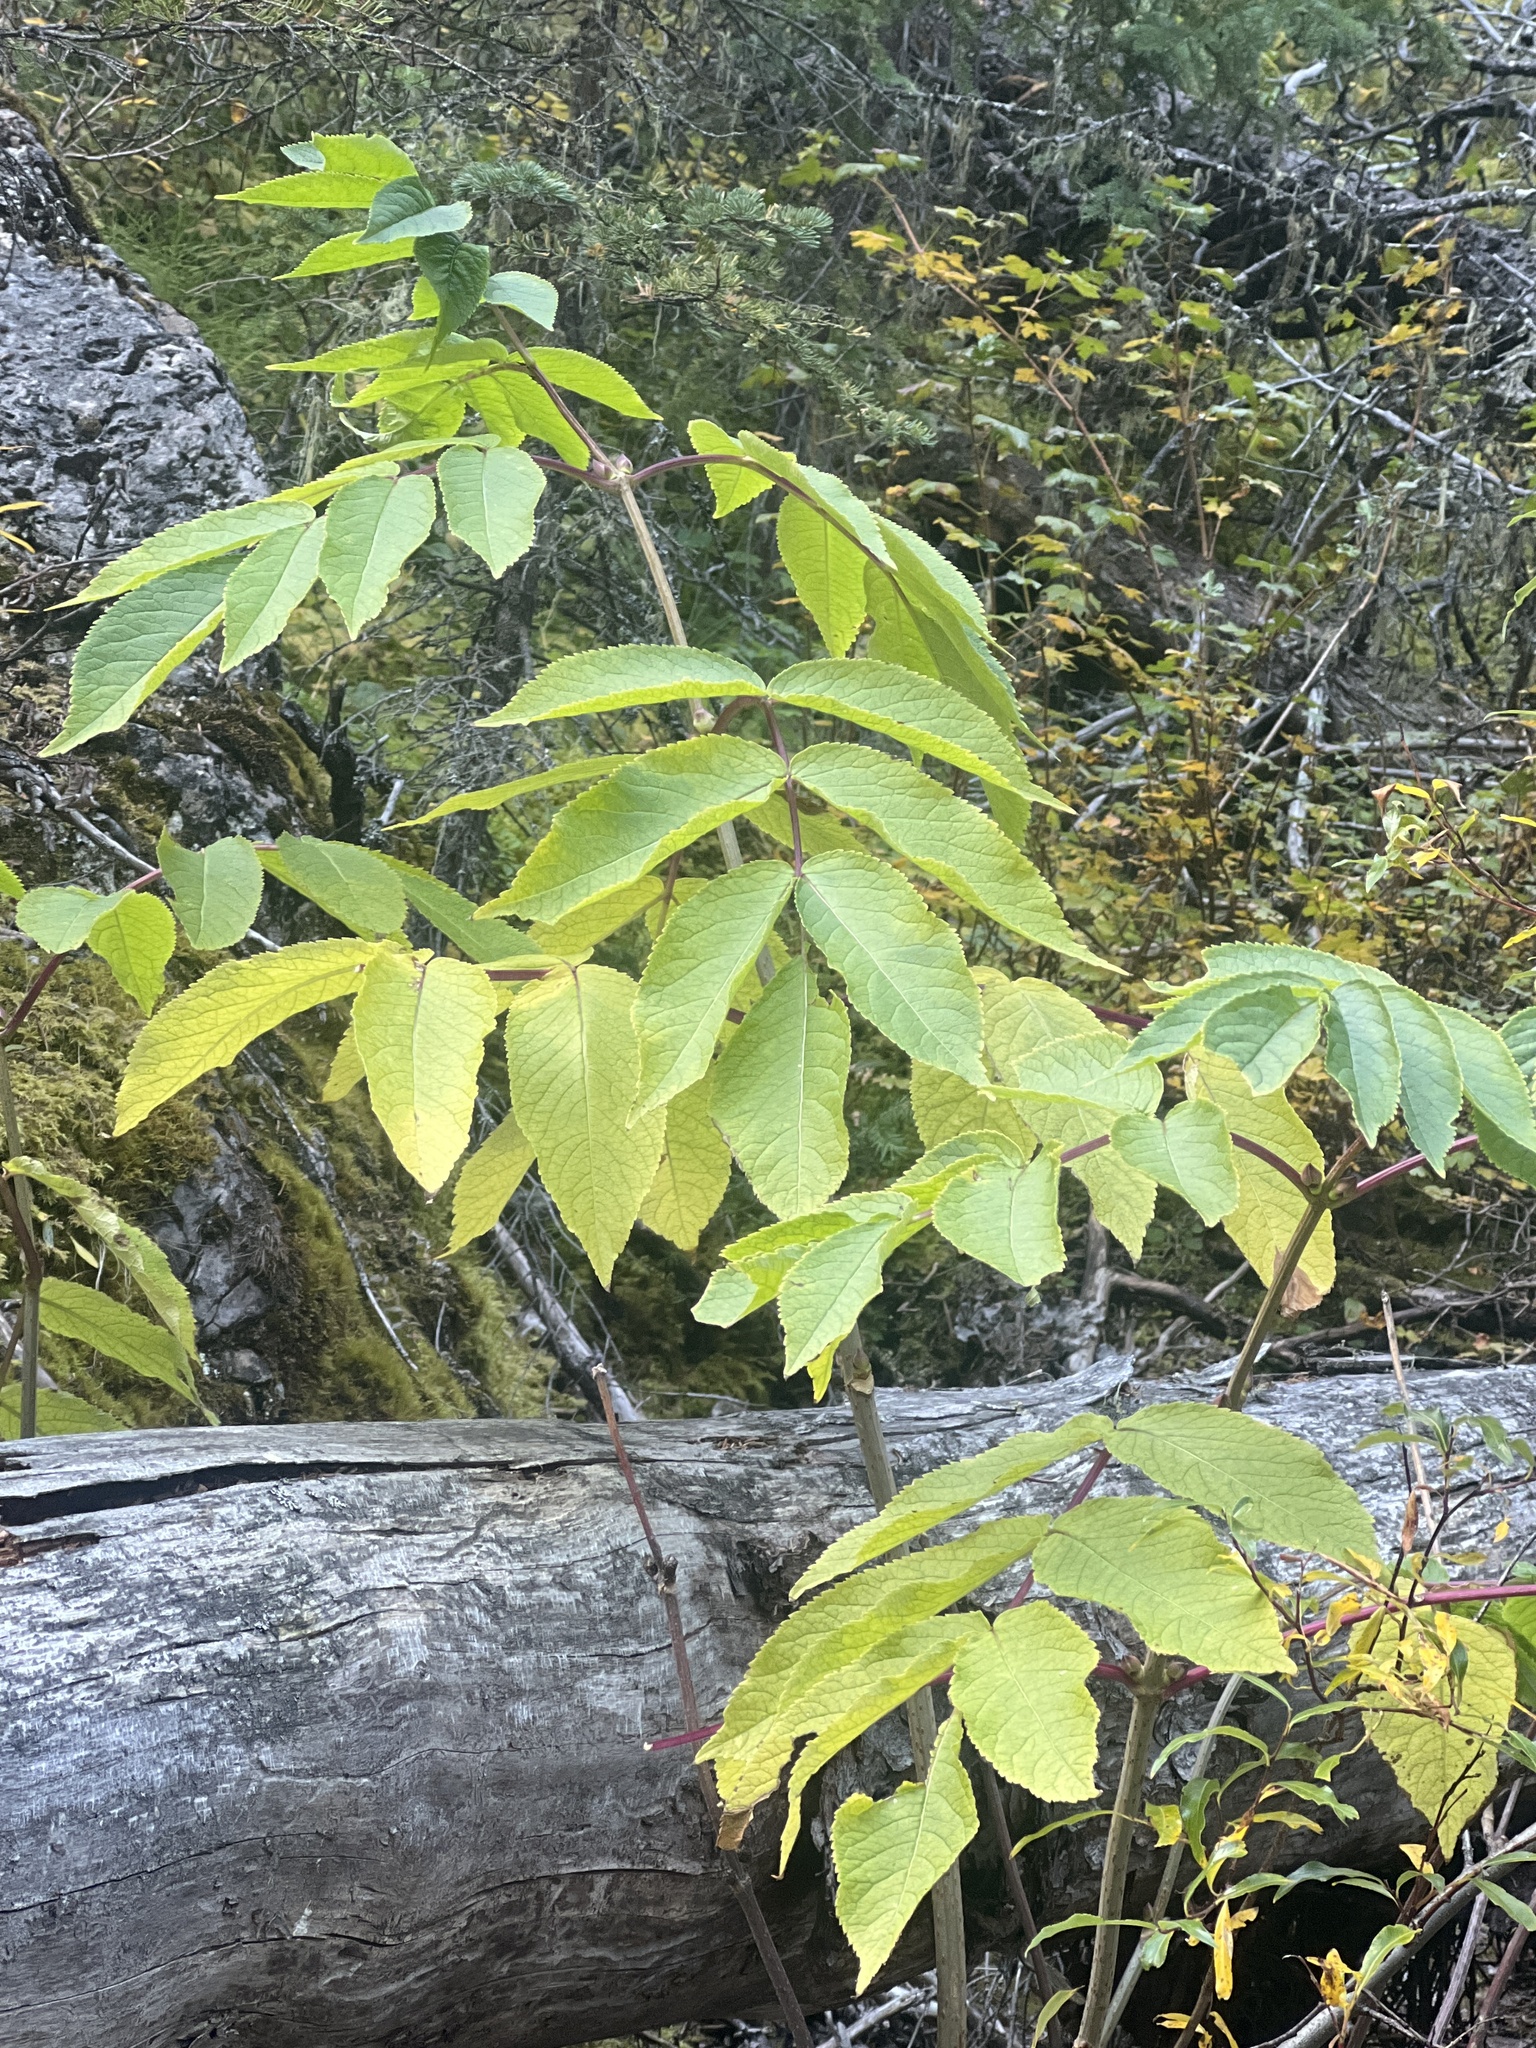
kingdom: Plantae
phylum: Tracheophyta
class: Magnoliopsida
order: Dipsacales
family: Viburnaceae
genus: Sambucus
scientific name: Sambucus racemosa
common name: Red-berried elder
